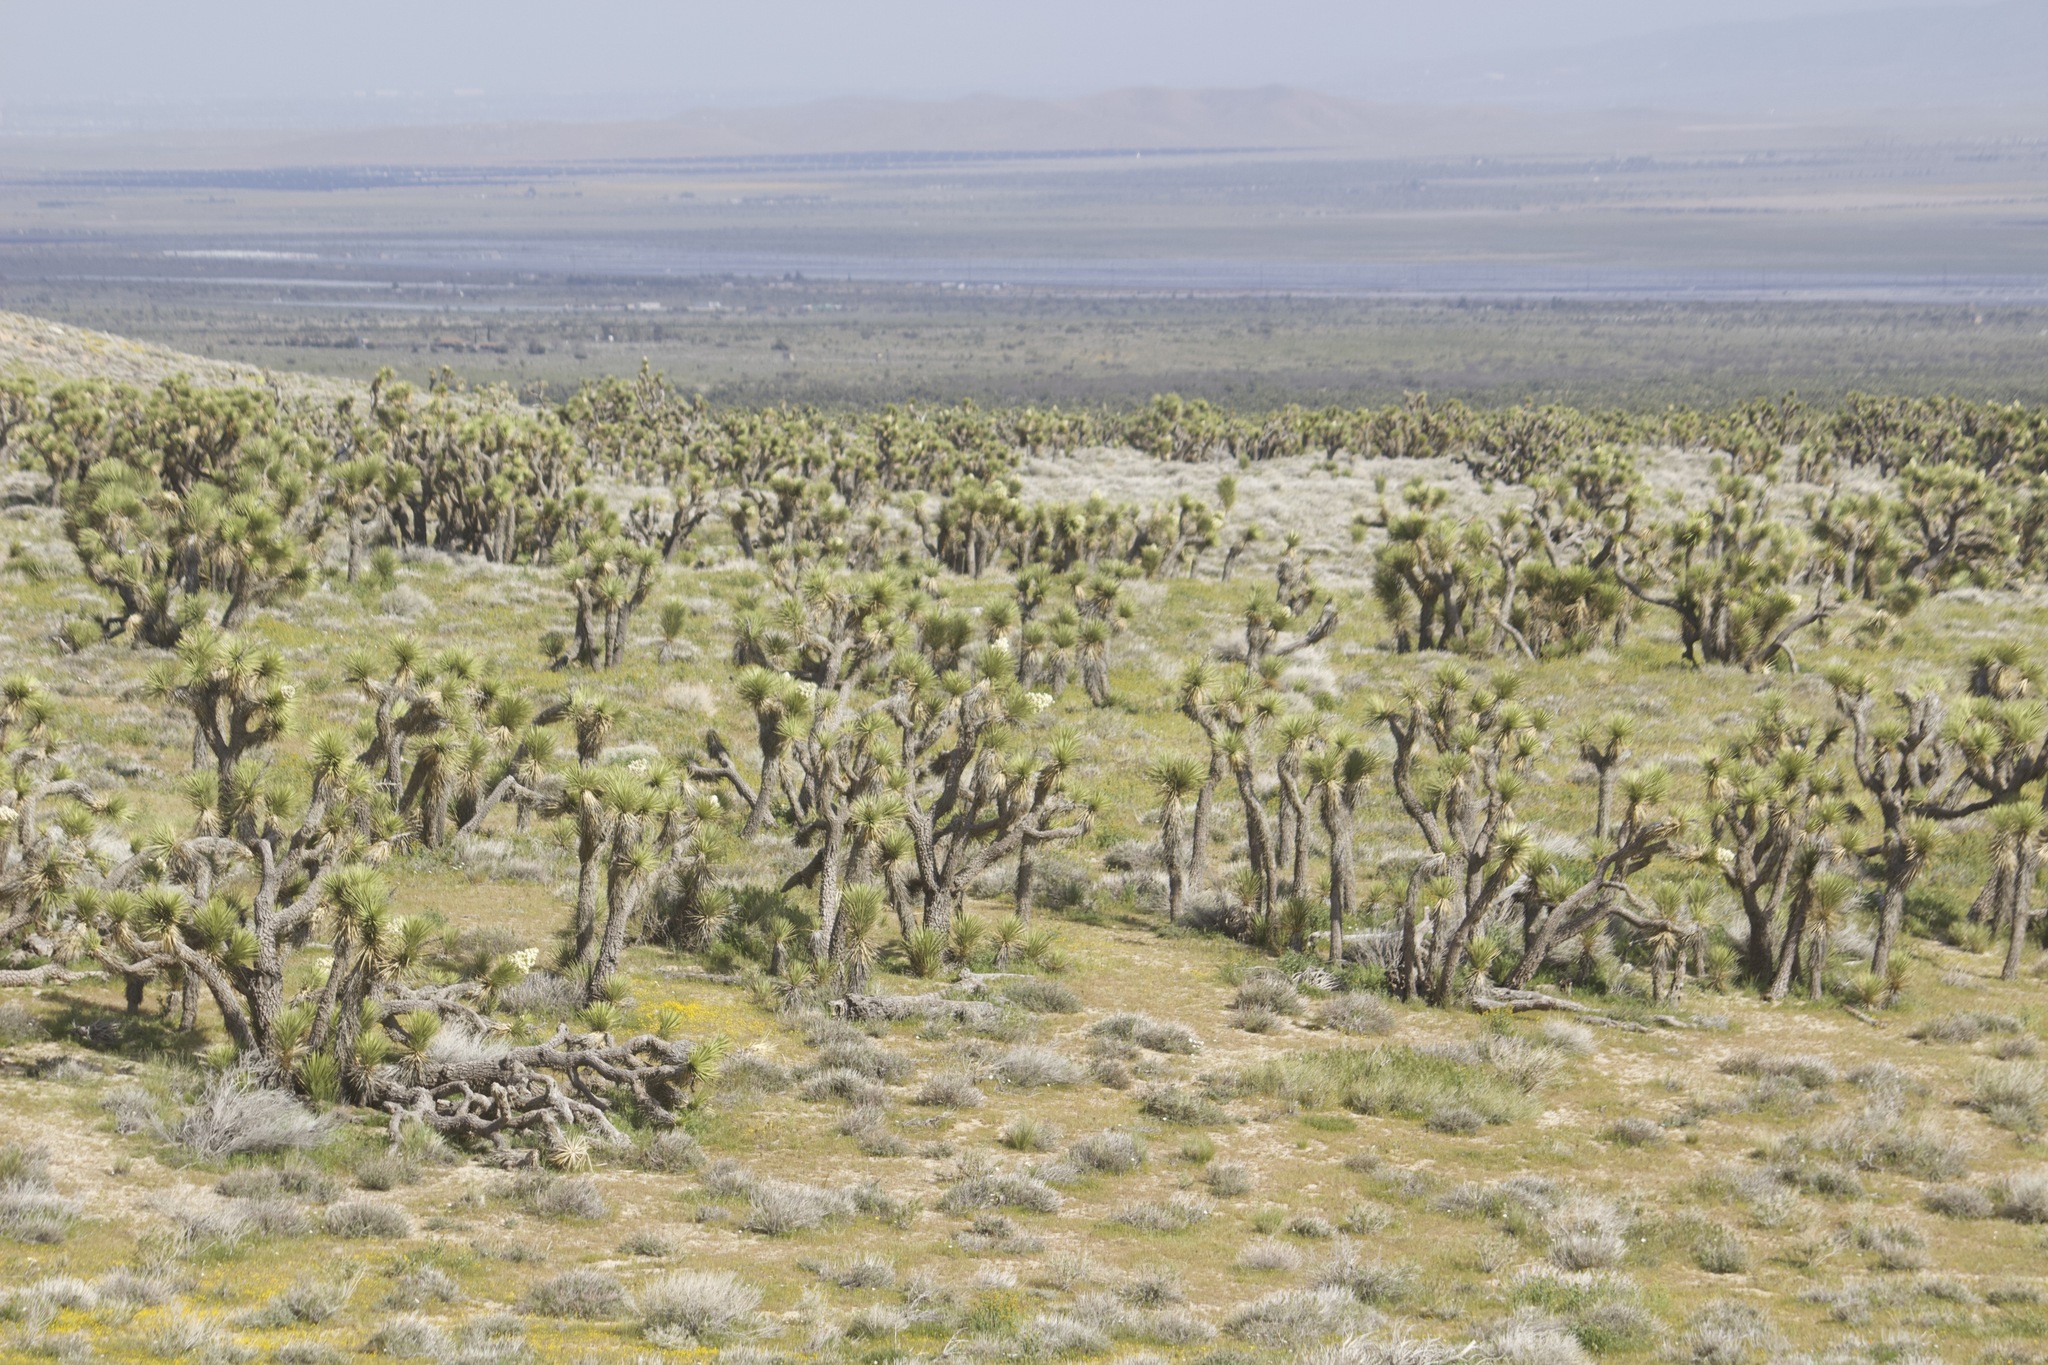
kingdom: Plantae
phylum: Tracheophyta
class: Liliopsida
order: Asparagales
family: Asparagaceae
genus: Yucca
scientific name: Yucca brevifolia
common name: Joshua tree
